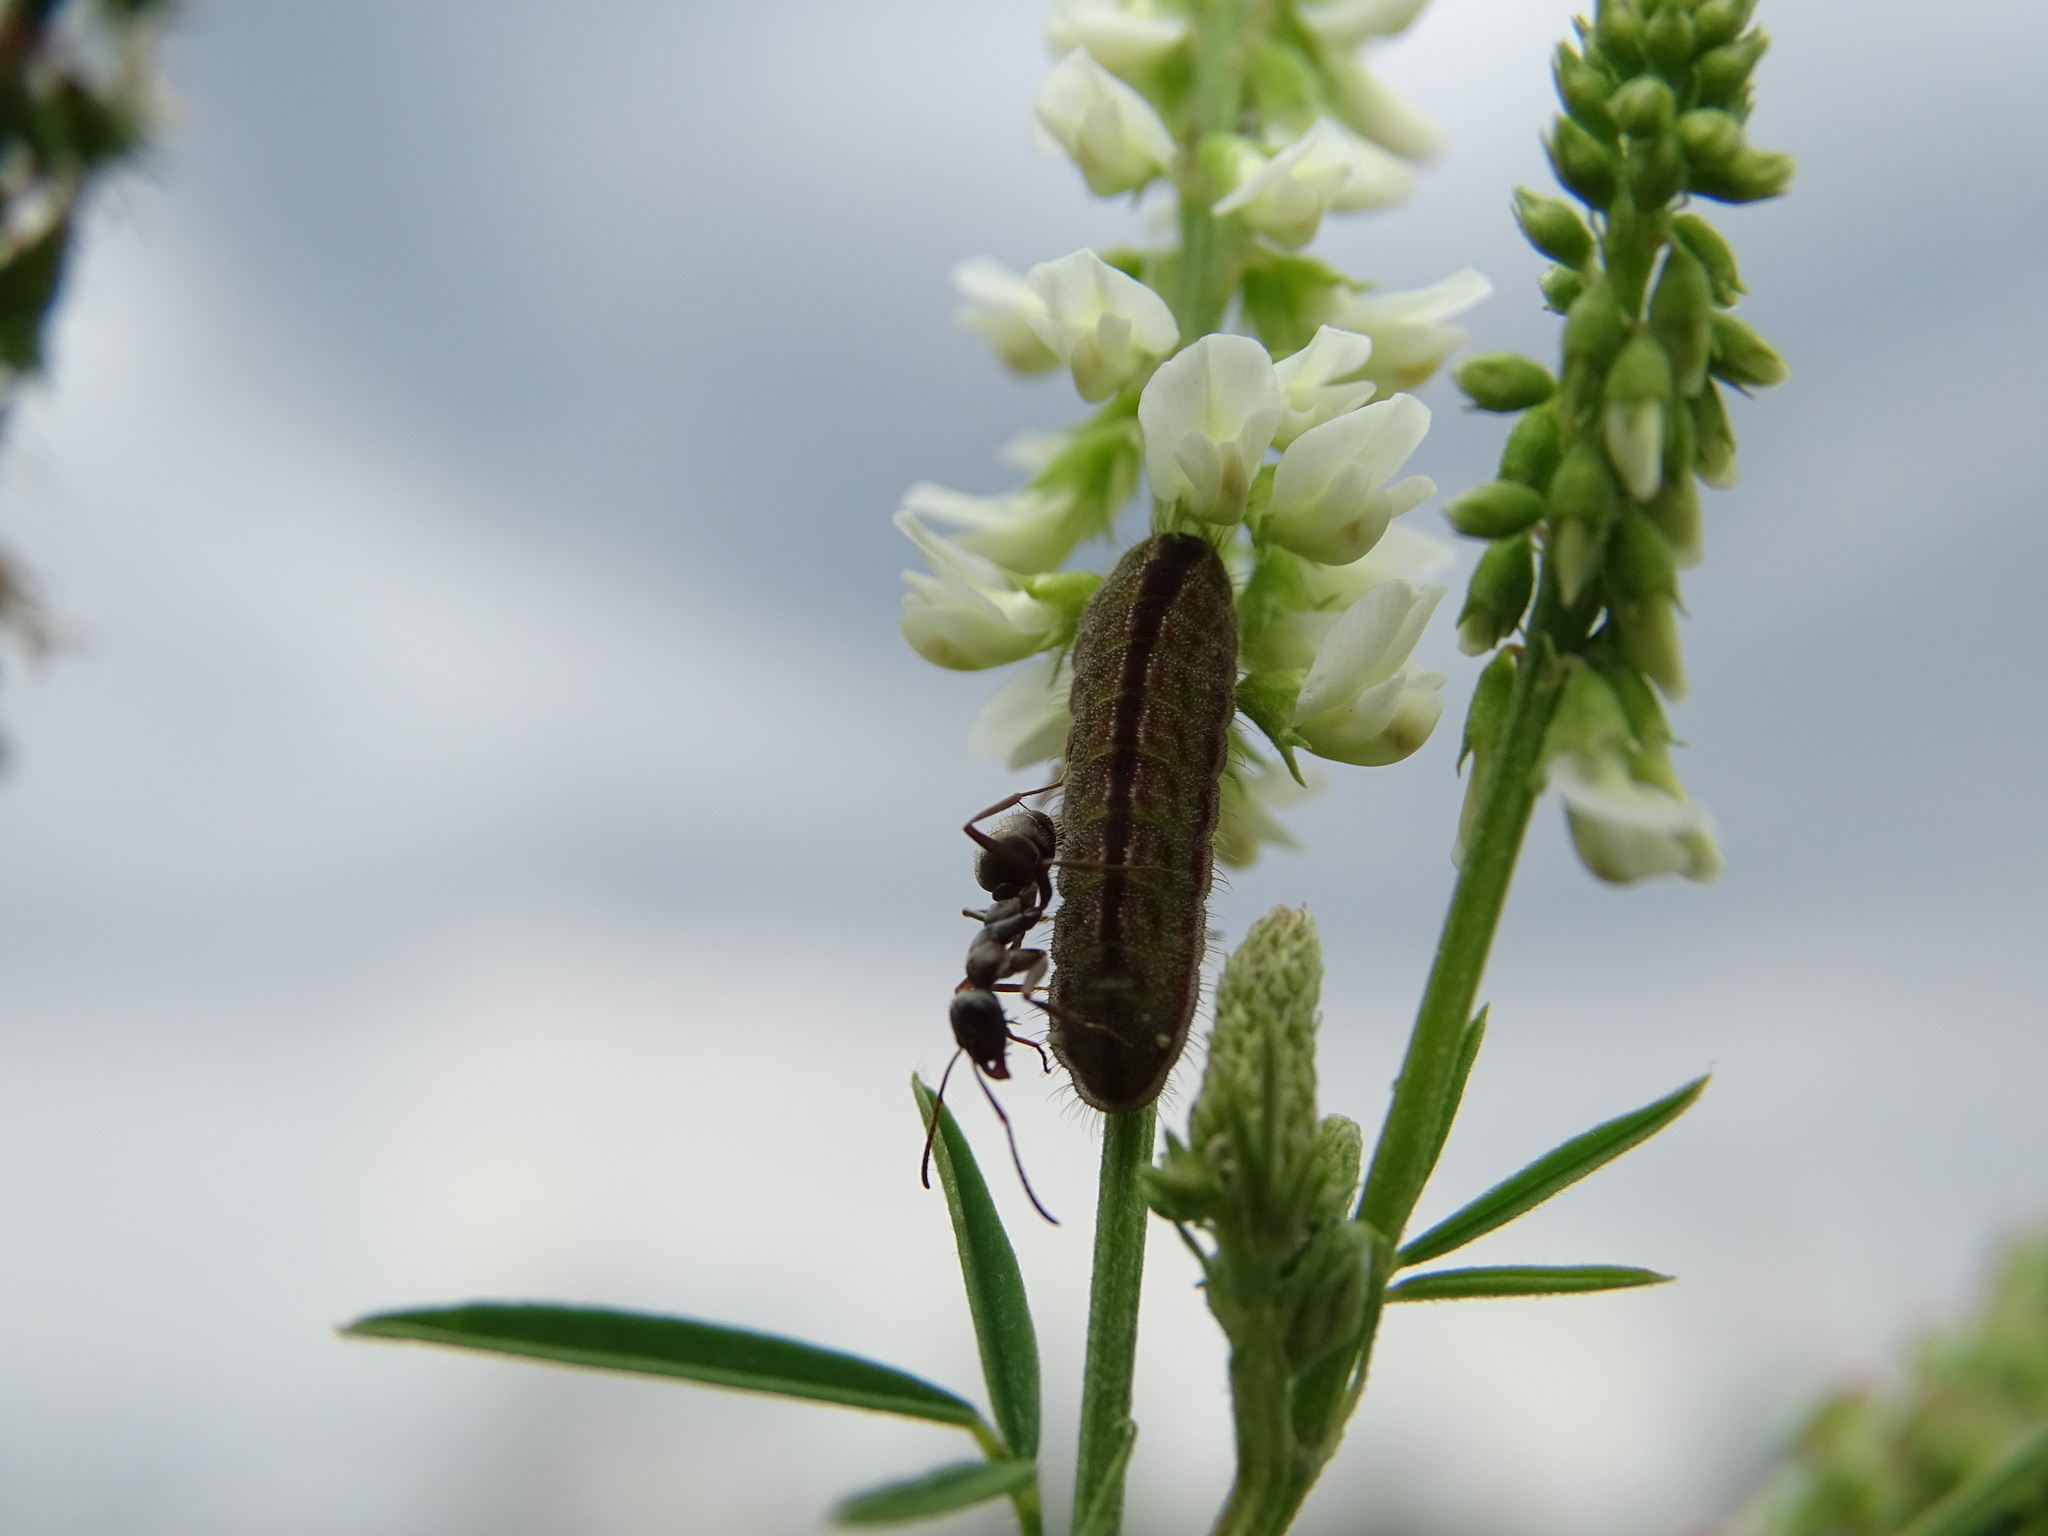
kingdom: Animalia
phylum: Arthropoda
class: Insecta
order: Lepidoptera
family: Lycaenidae
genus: Lycaeides
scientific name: Lycaeides idas
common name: Northern blue
